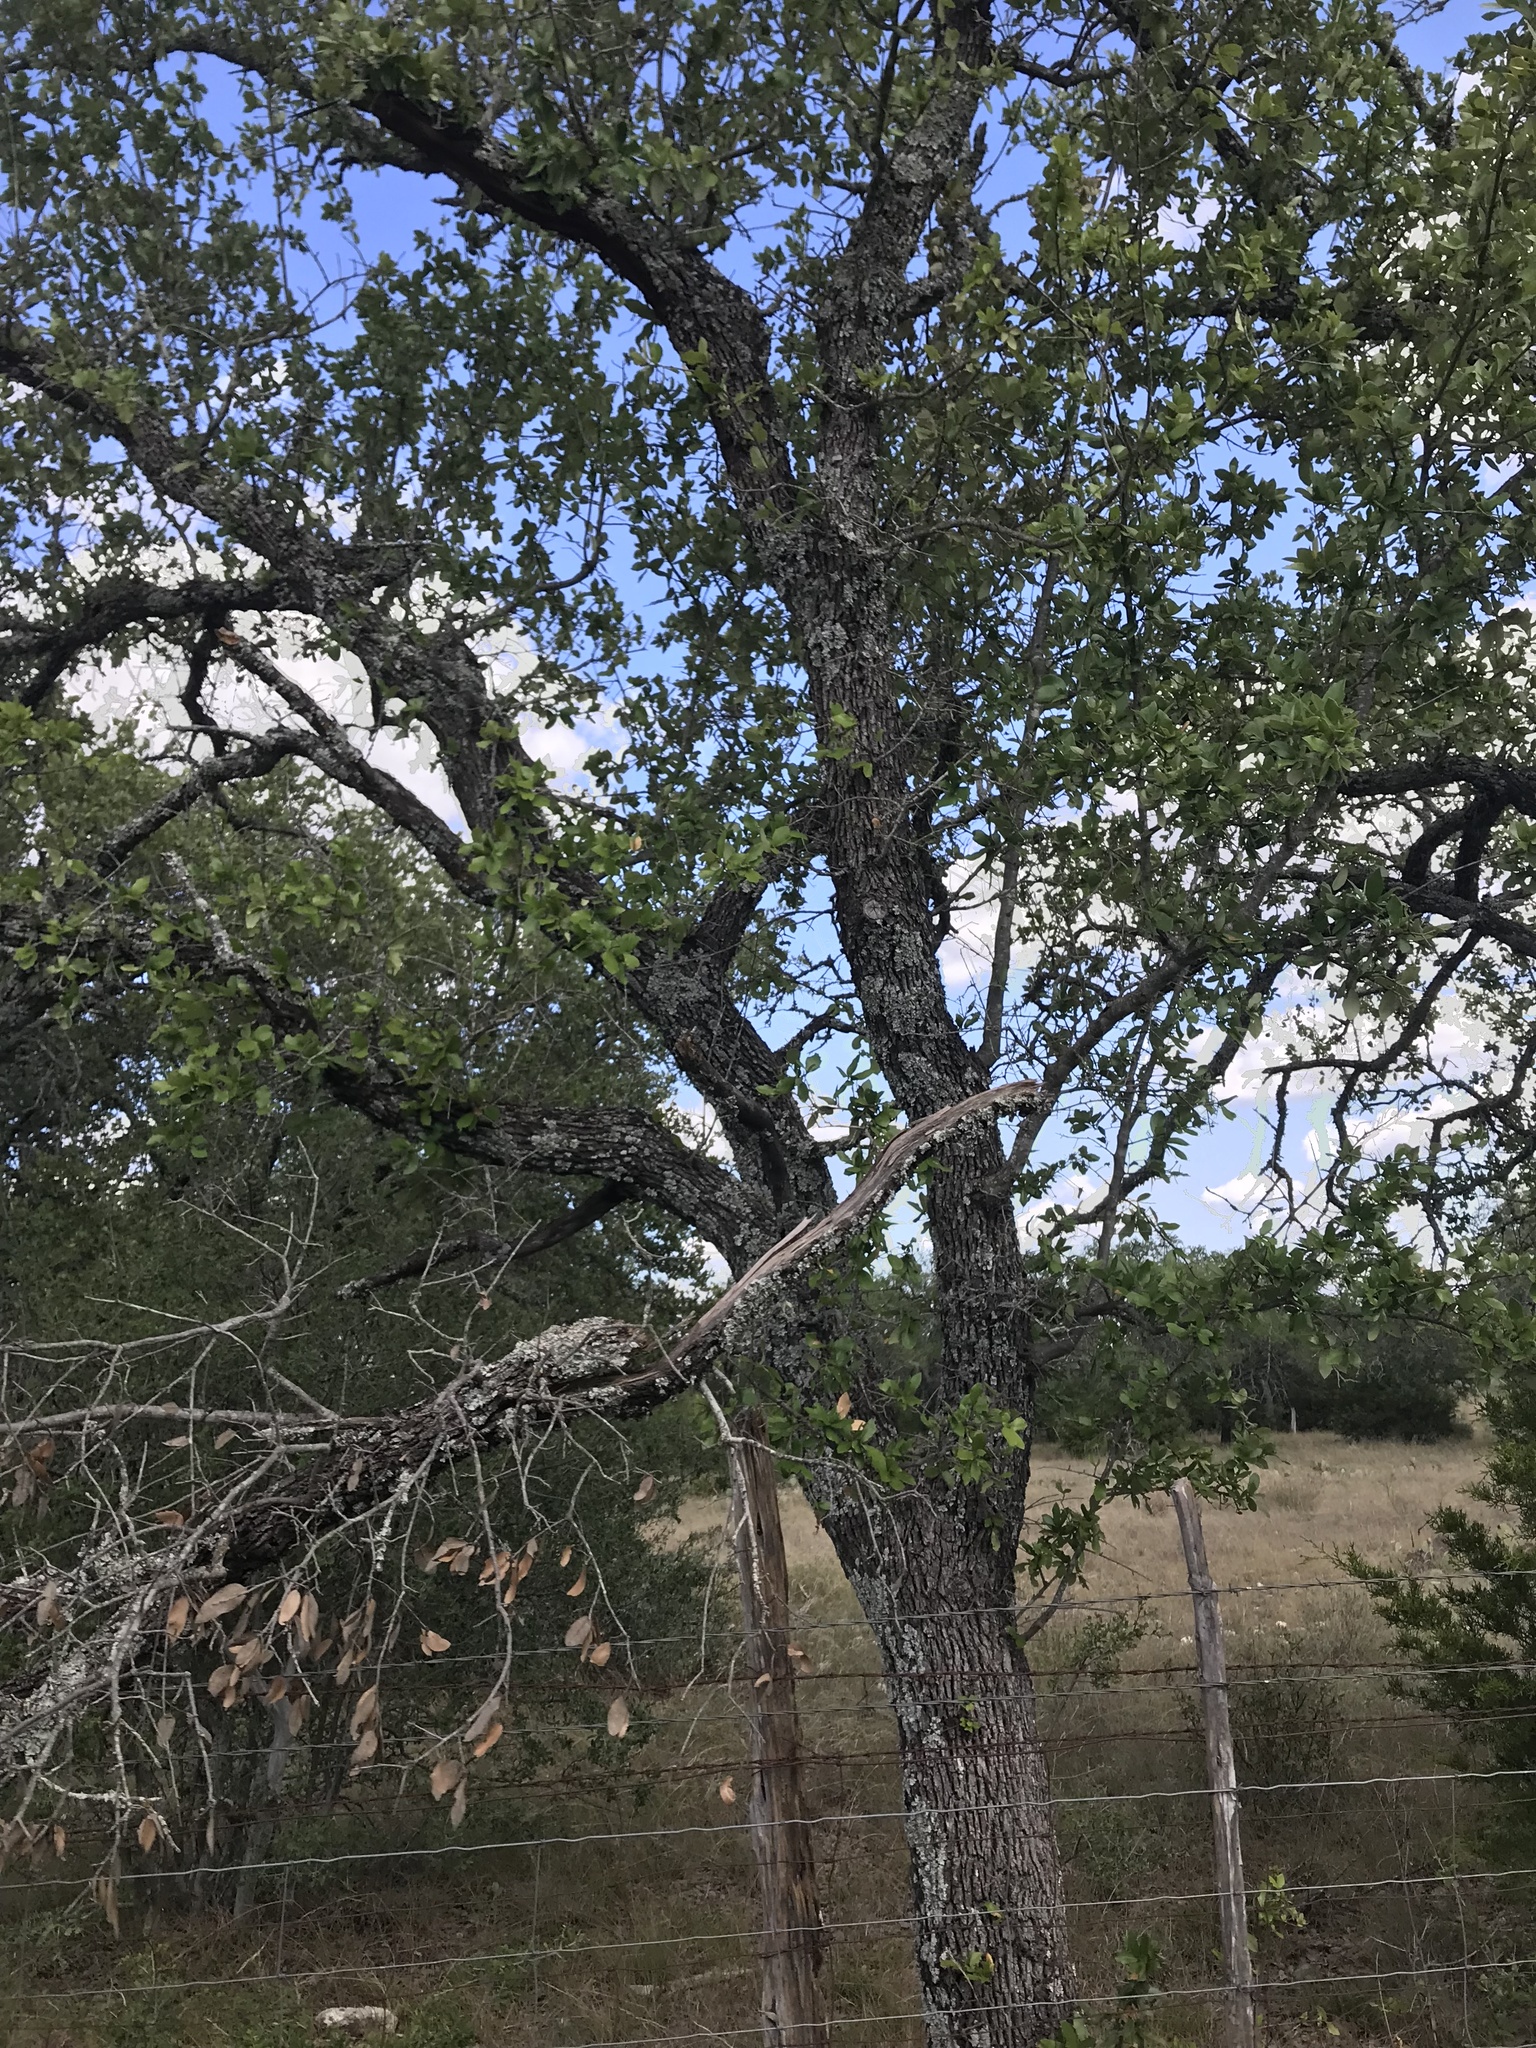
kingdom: Plantae
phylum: Tracheophyta
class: Magnoliopsida
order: Fagales
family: Fagaceae
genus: Quercus
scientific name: Quercus fusiformis
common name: Texas live oak
